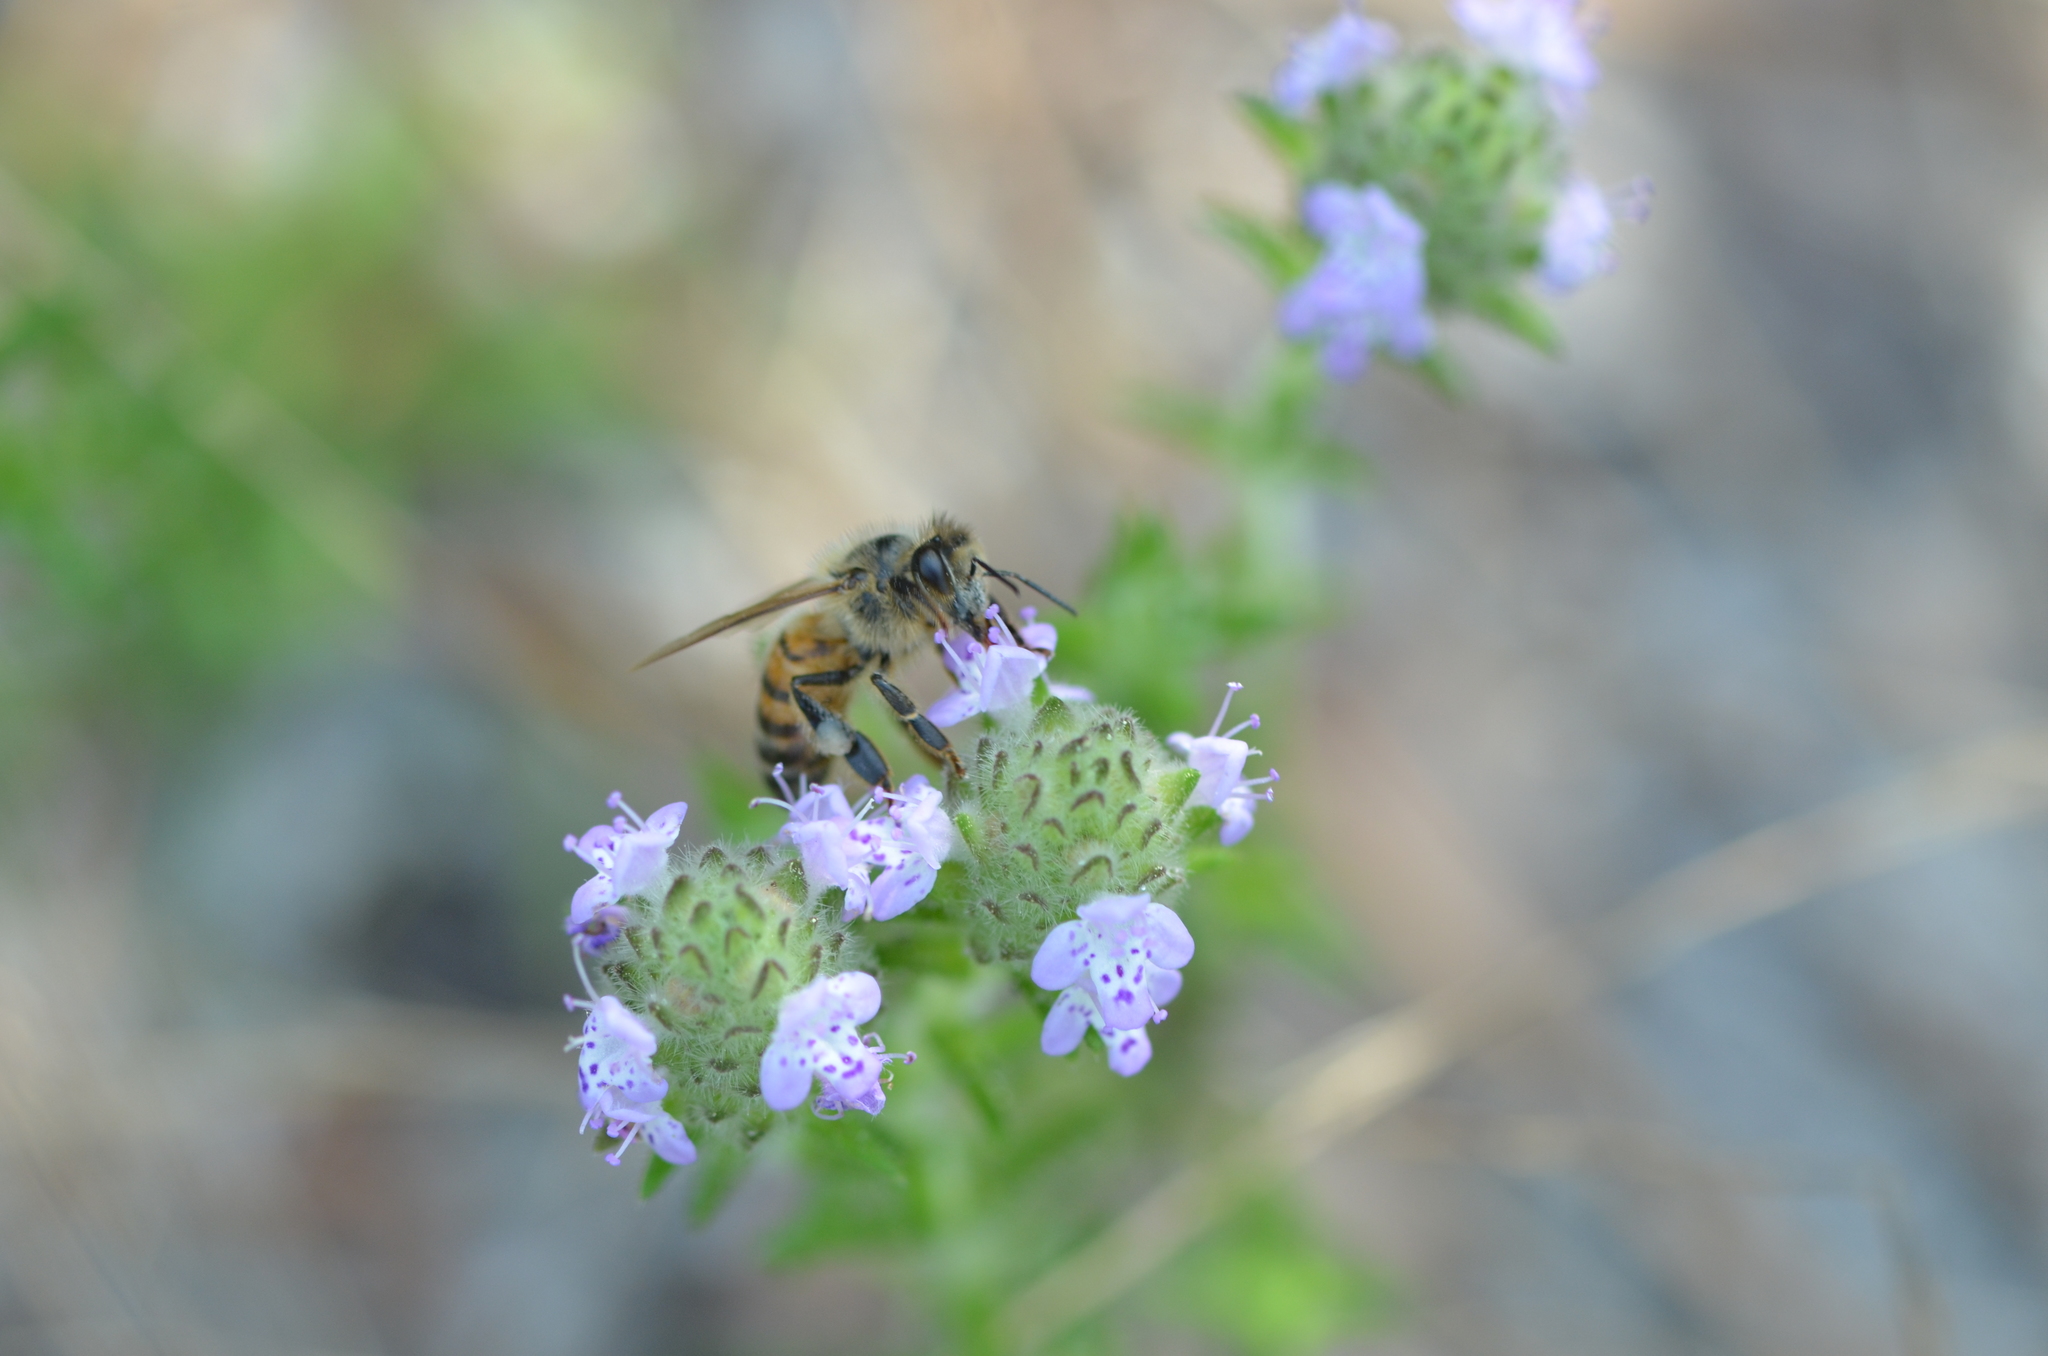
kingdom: Plantae
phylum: Tracheophyta
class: Magnoliopsida
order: Lamiales
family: Lamiaceae
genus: Piloblephis
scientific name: Piloblephis rigida
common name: Wild pennyroyal
